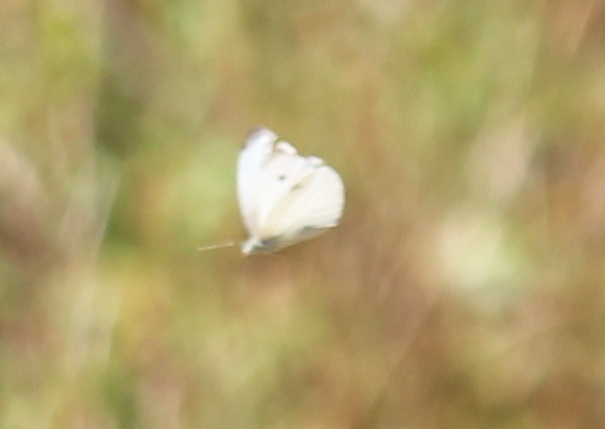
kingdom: Animalia
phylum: Arthropoda
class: Insecta
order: Lepidoptera
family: Pieridae
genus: Pieris
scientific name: Pieris rapae
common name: Small white
